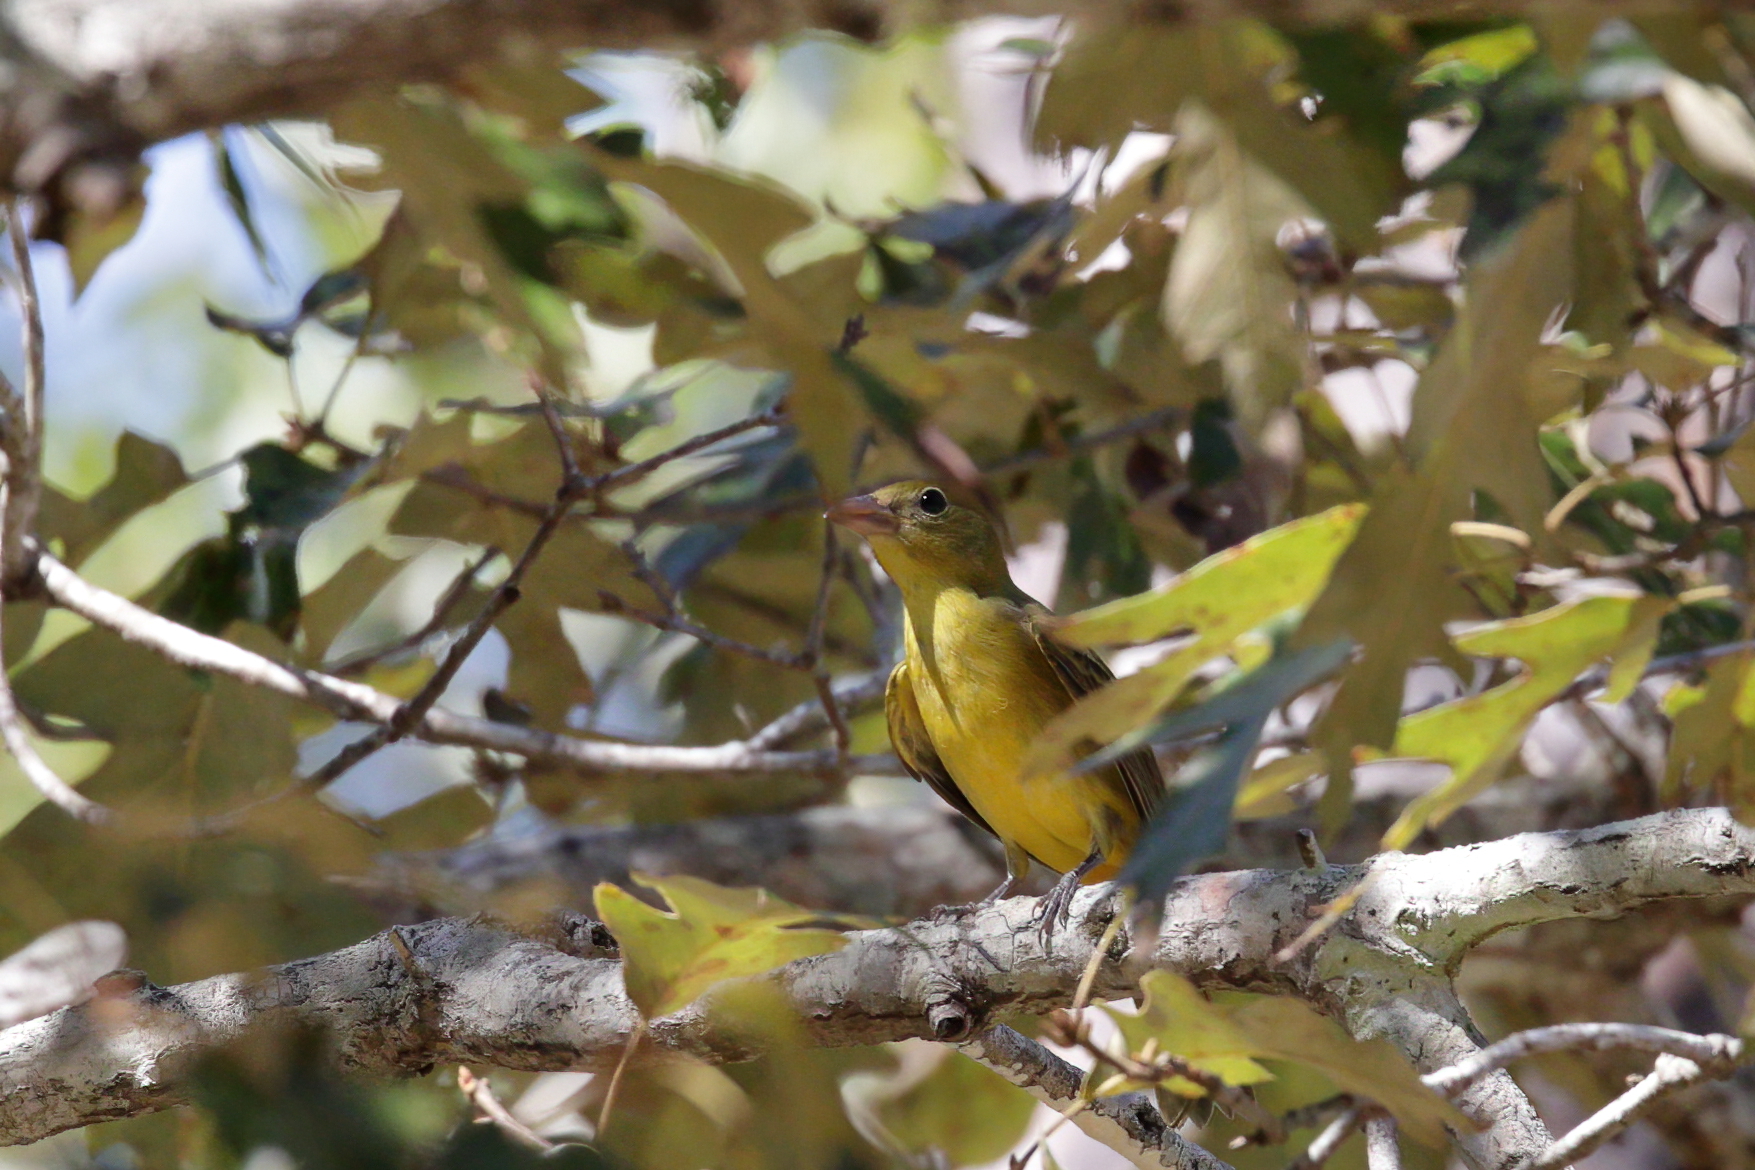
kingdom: Animalia
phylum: Chordata
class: Aves
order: Passeriformes
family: Cardinalidae
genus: Piranga
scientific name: Piranga rubra
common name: Summer tanager
